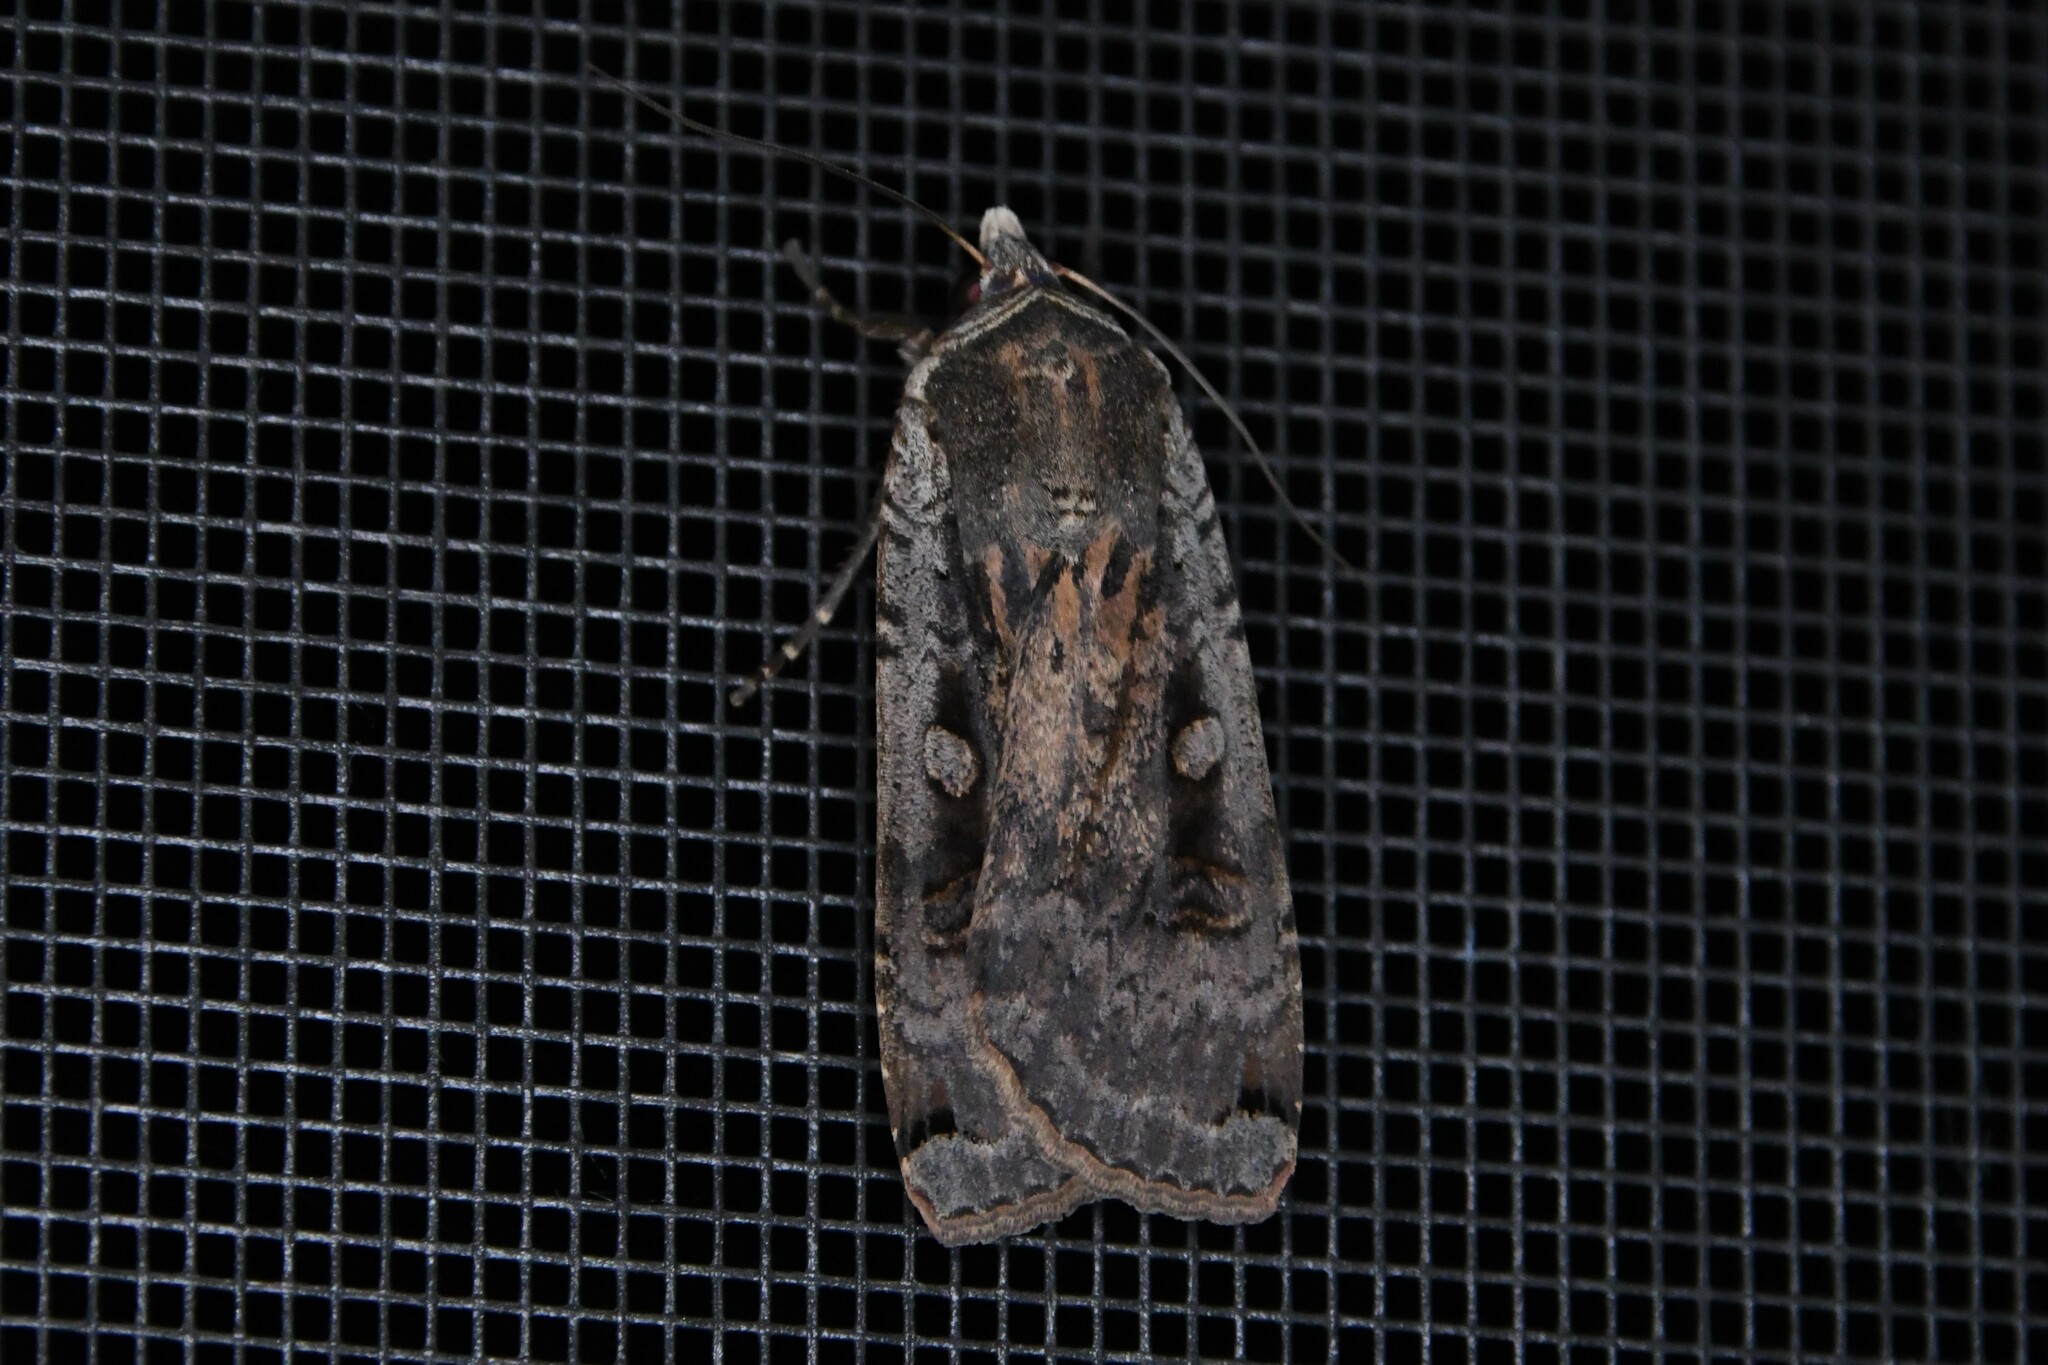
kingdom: Animalia
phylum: Arthropoda
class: Insecta
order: Lepidoptera
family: Noctuidae
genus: Noctua
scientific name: Noctua pronuba
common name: Large yellow underwing
